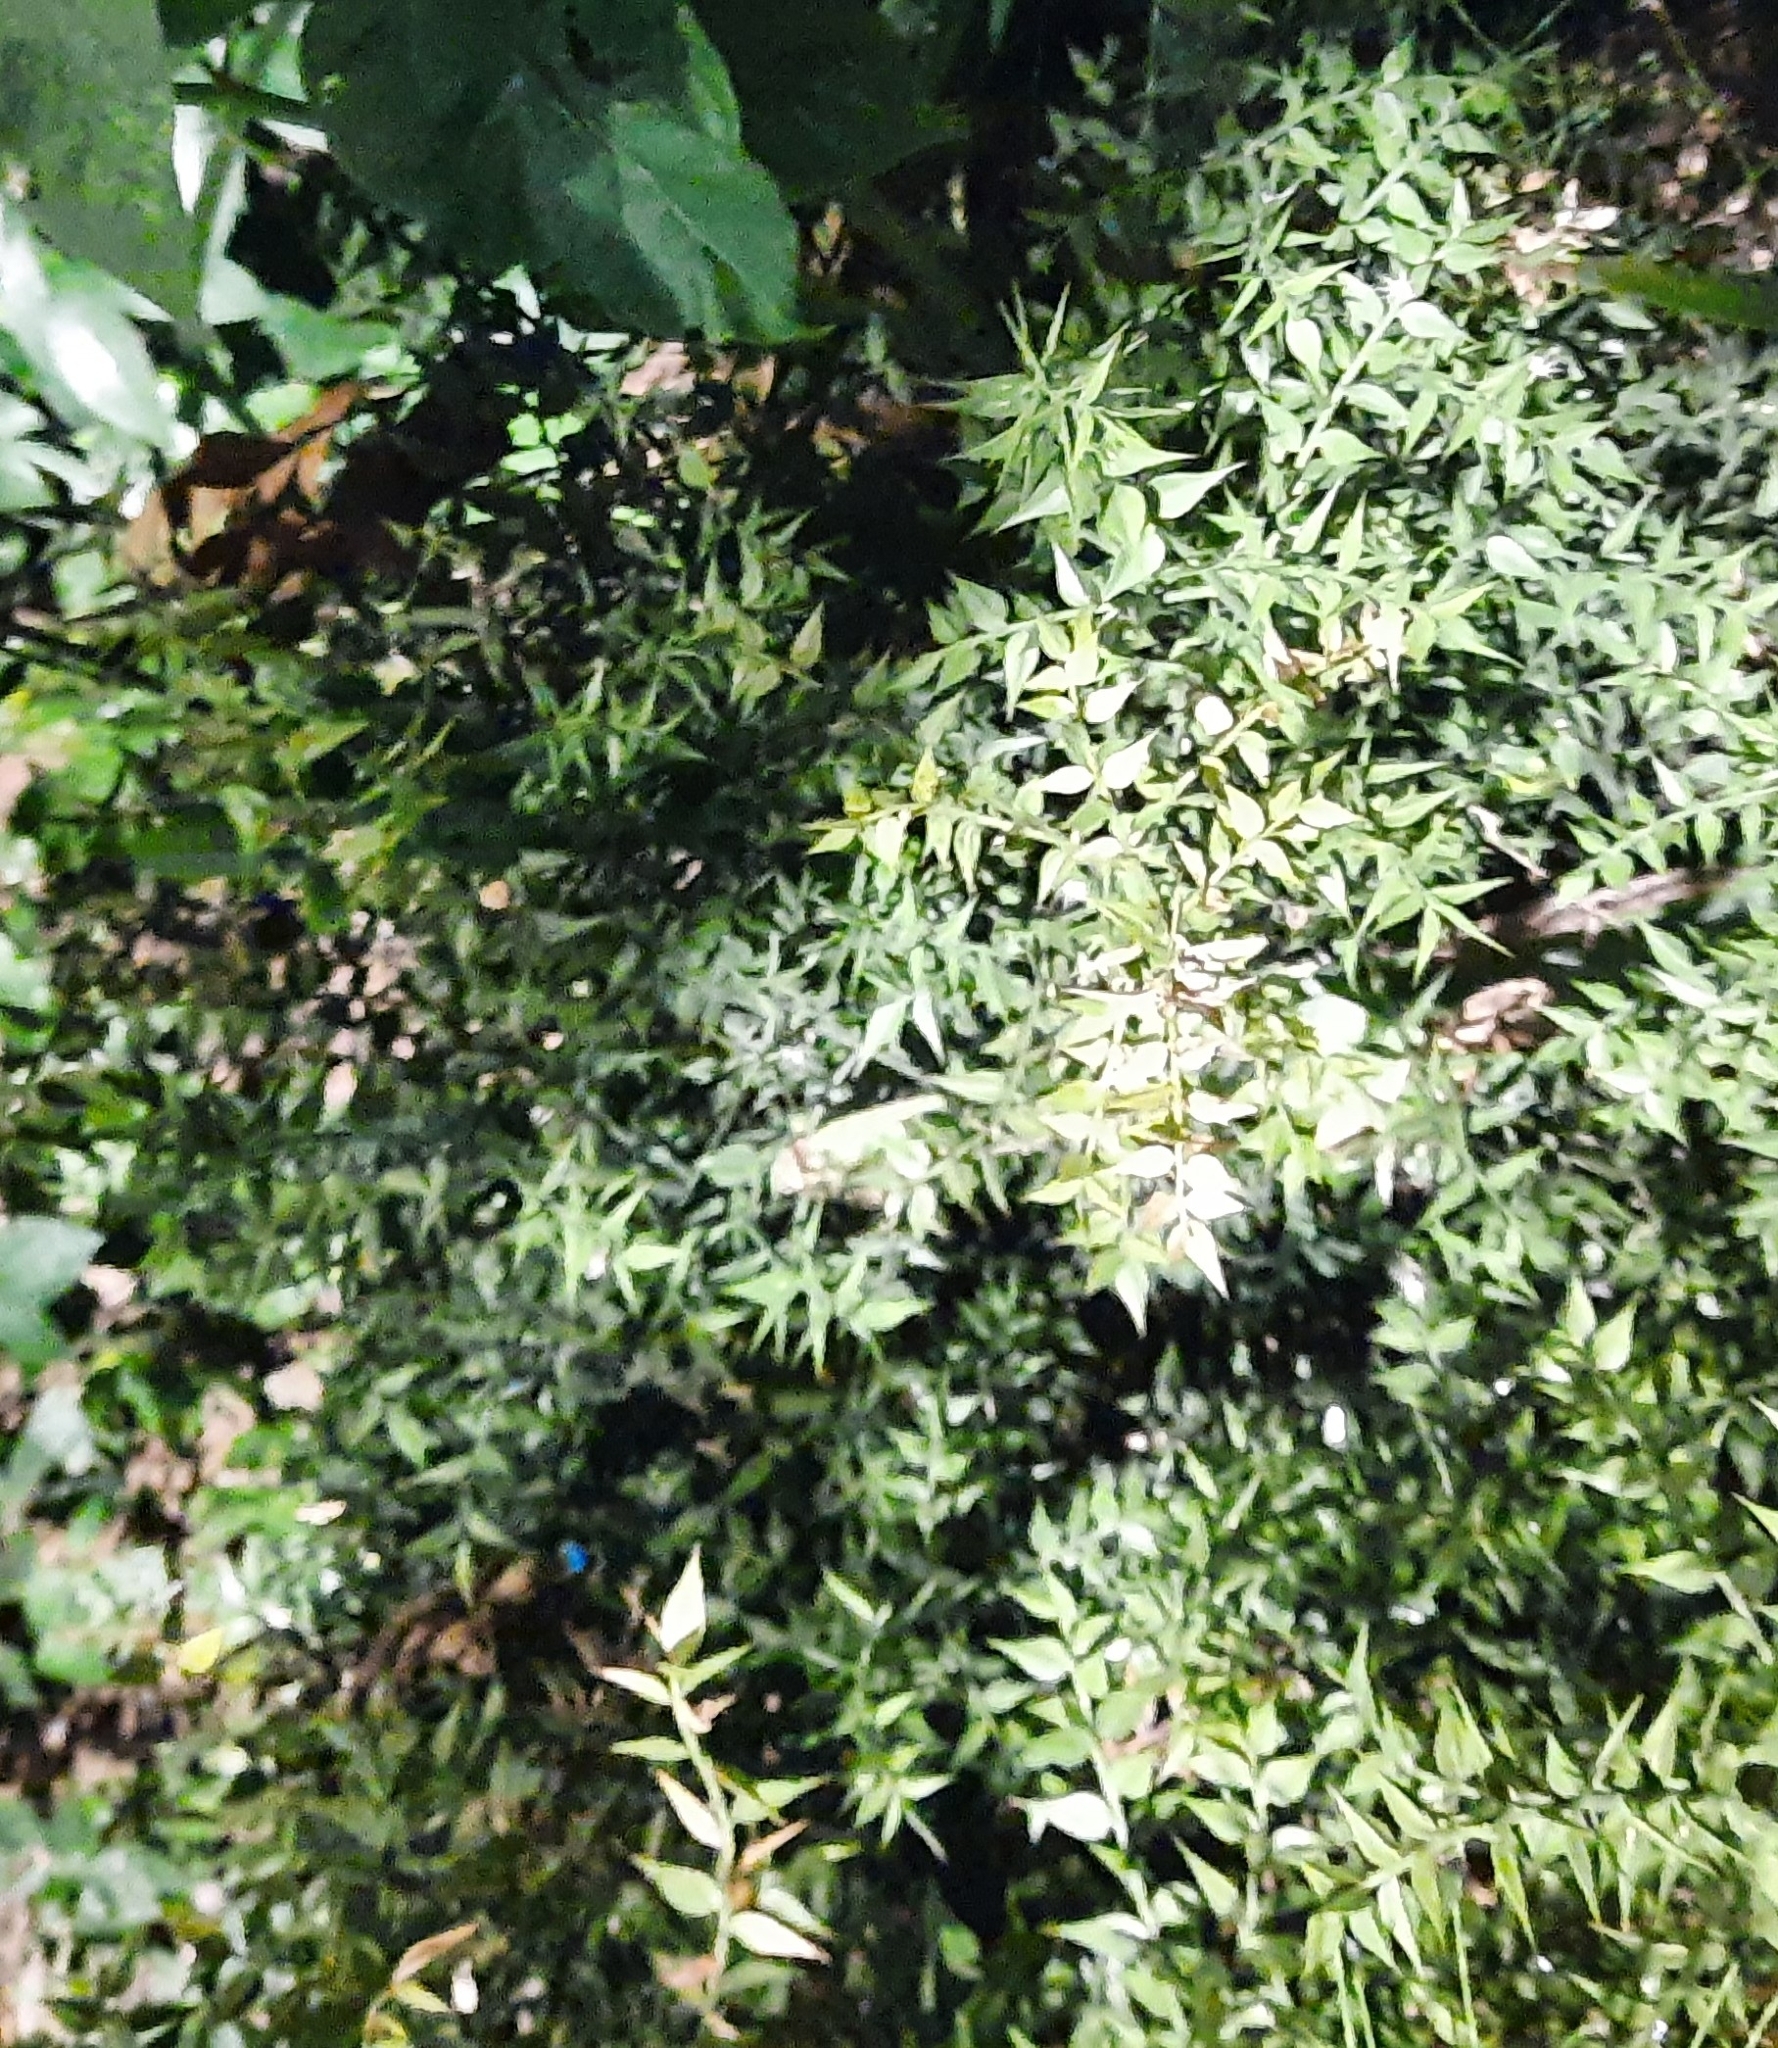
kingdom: Plantae
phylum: Tracheophyta
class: Liliopsida
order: Asparagales
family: Asparagaceae
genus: Ruscus
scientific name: Ruscus aculeatus
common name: Butcher's-broom
